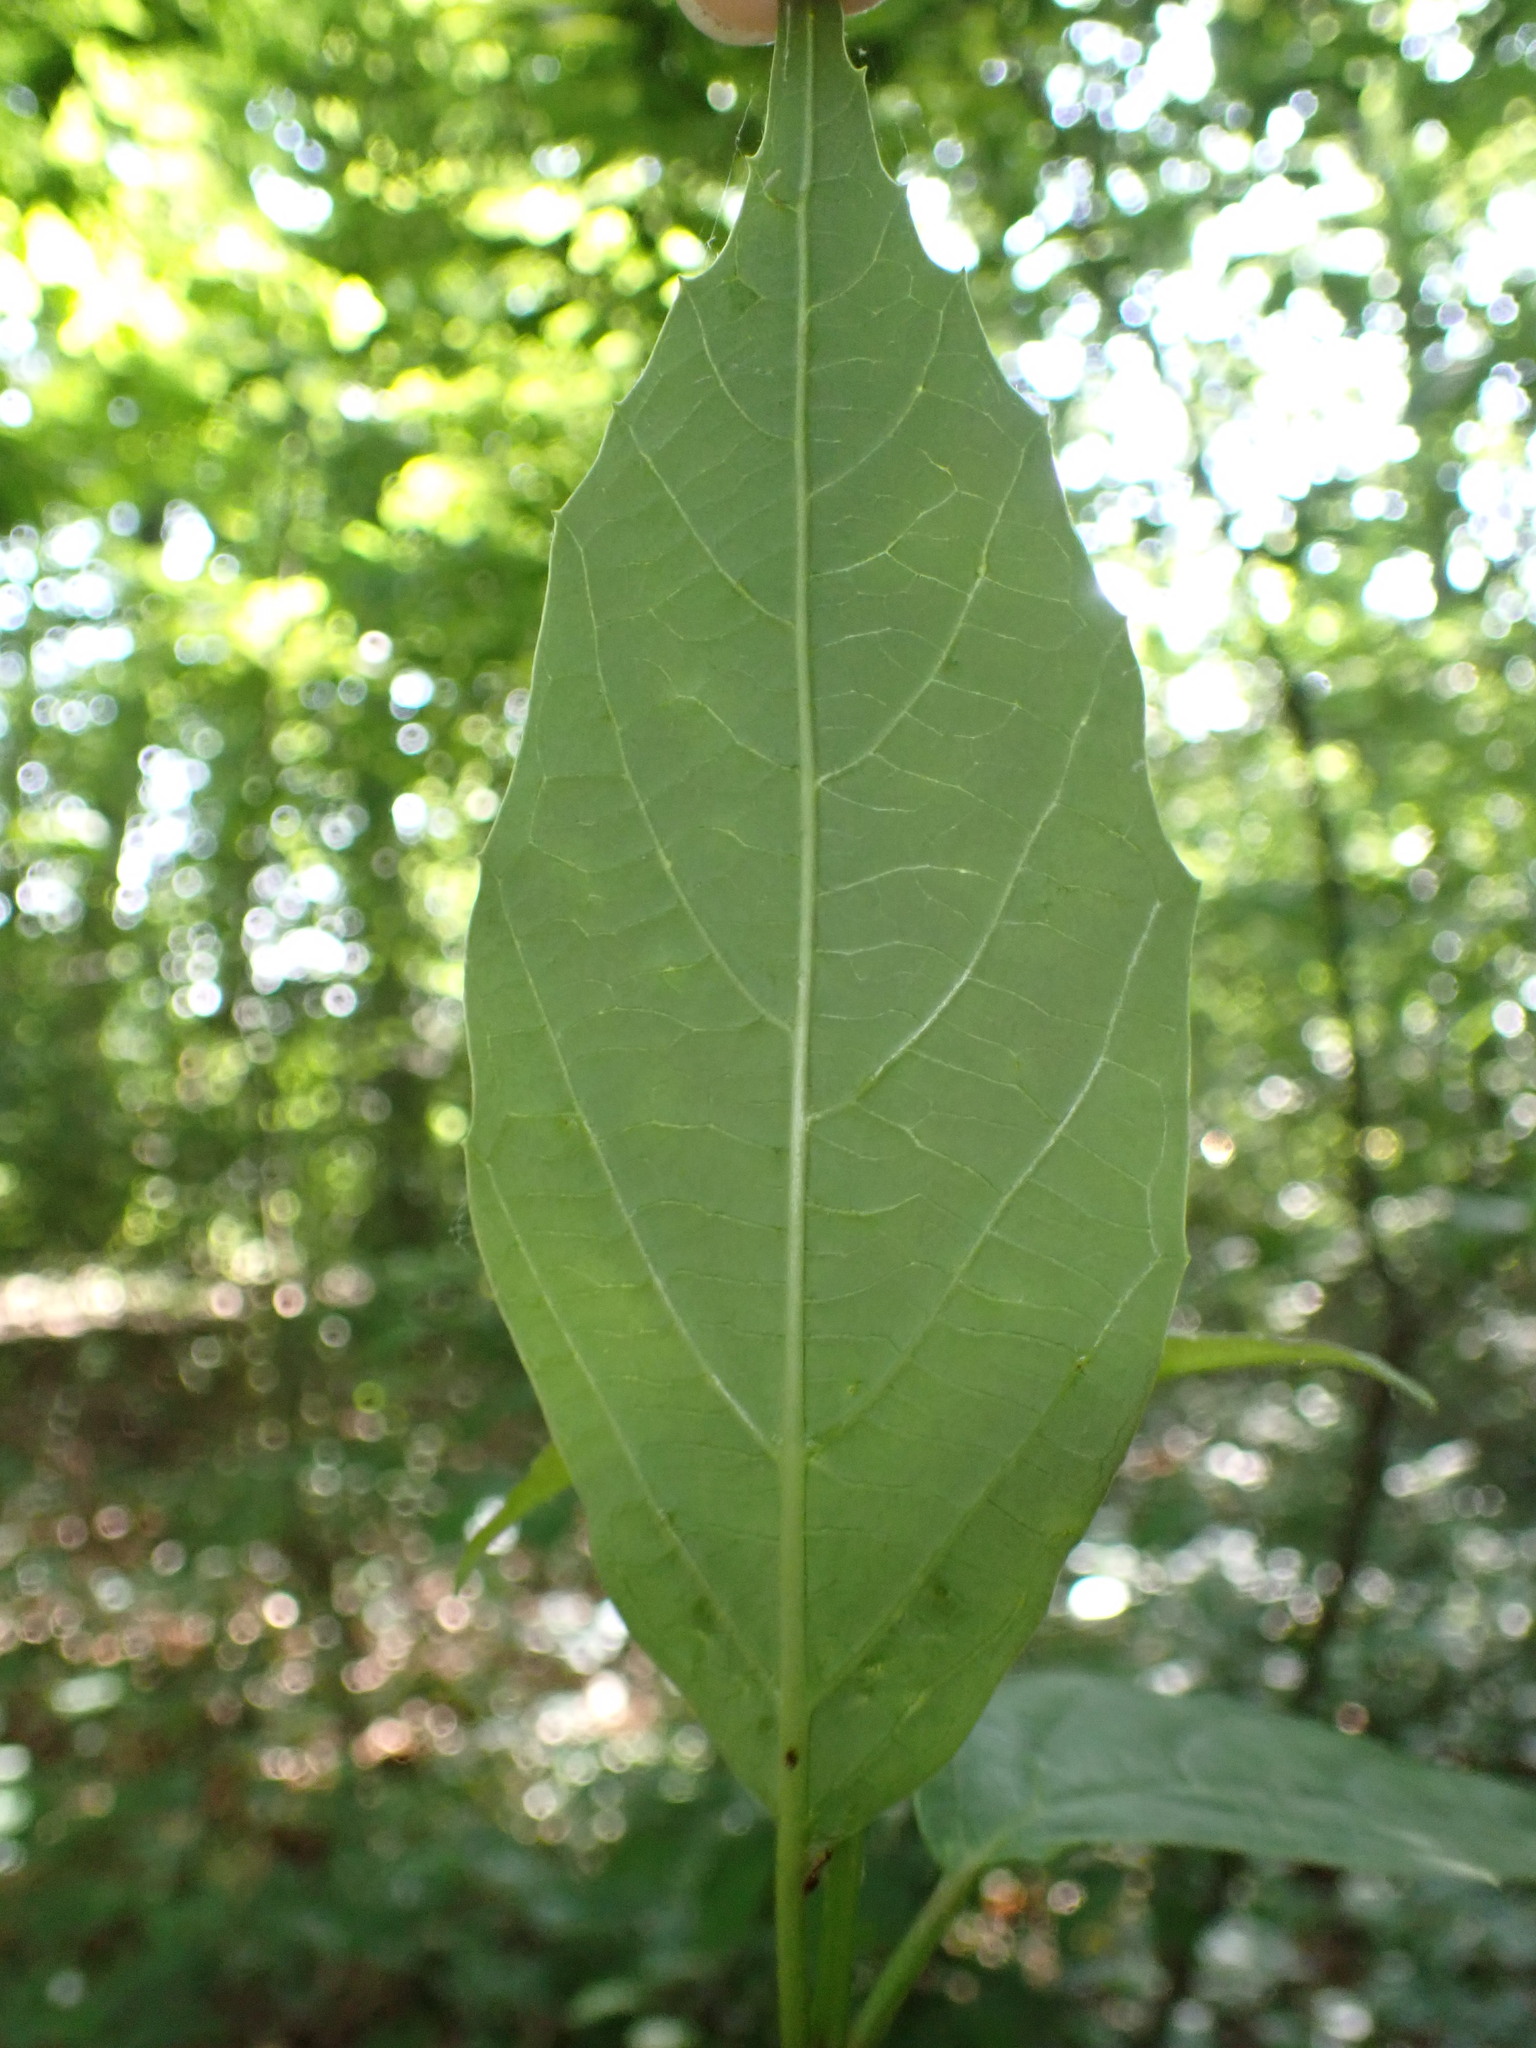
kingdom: Plantae
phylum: Tracheophyta
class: Magnoliopsida
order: Dipsacales
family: Viburnaceae
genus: Viburnum
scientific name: Viburnum setigerum
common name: Tea viburnum
